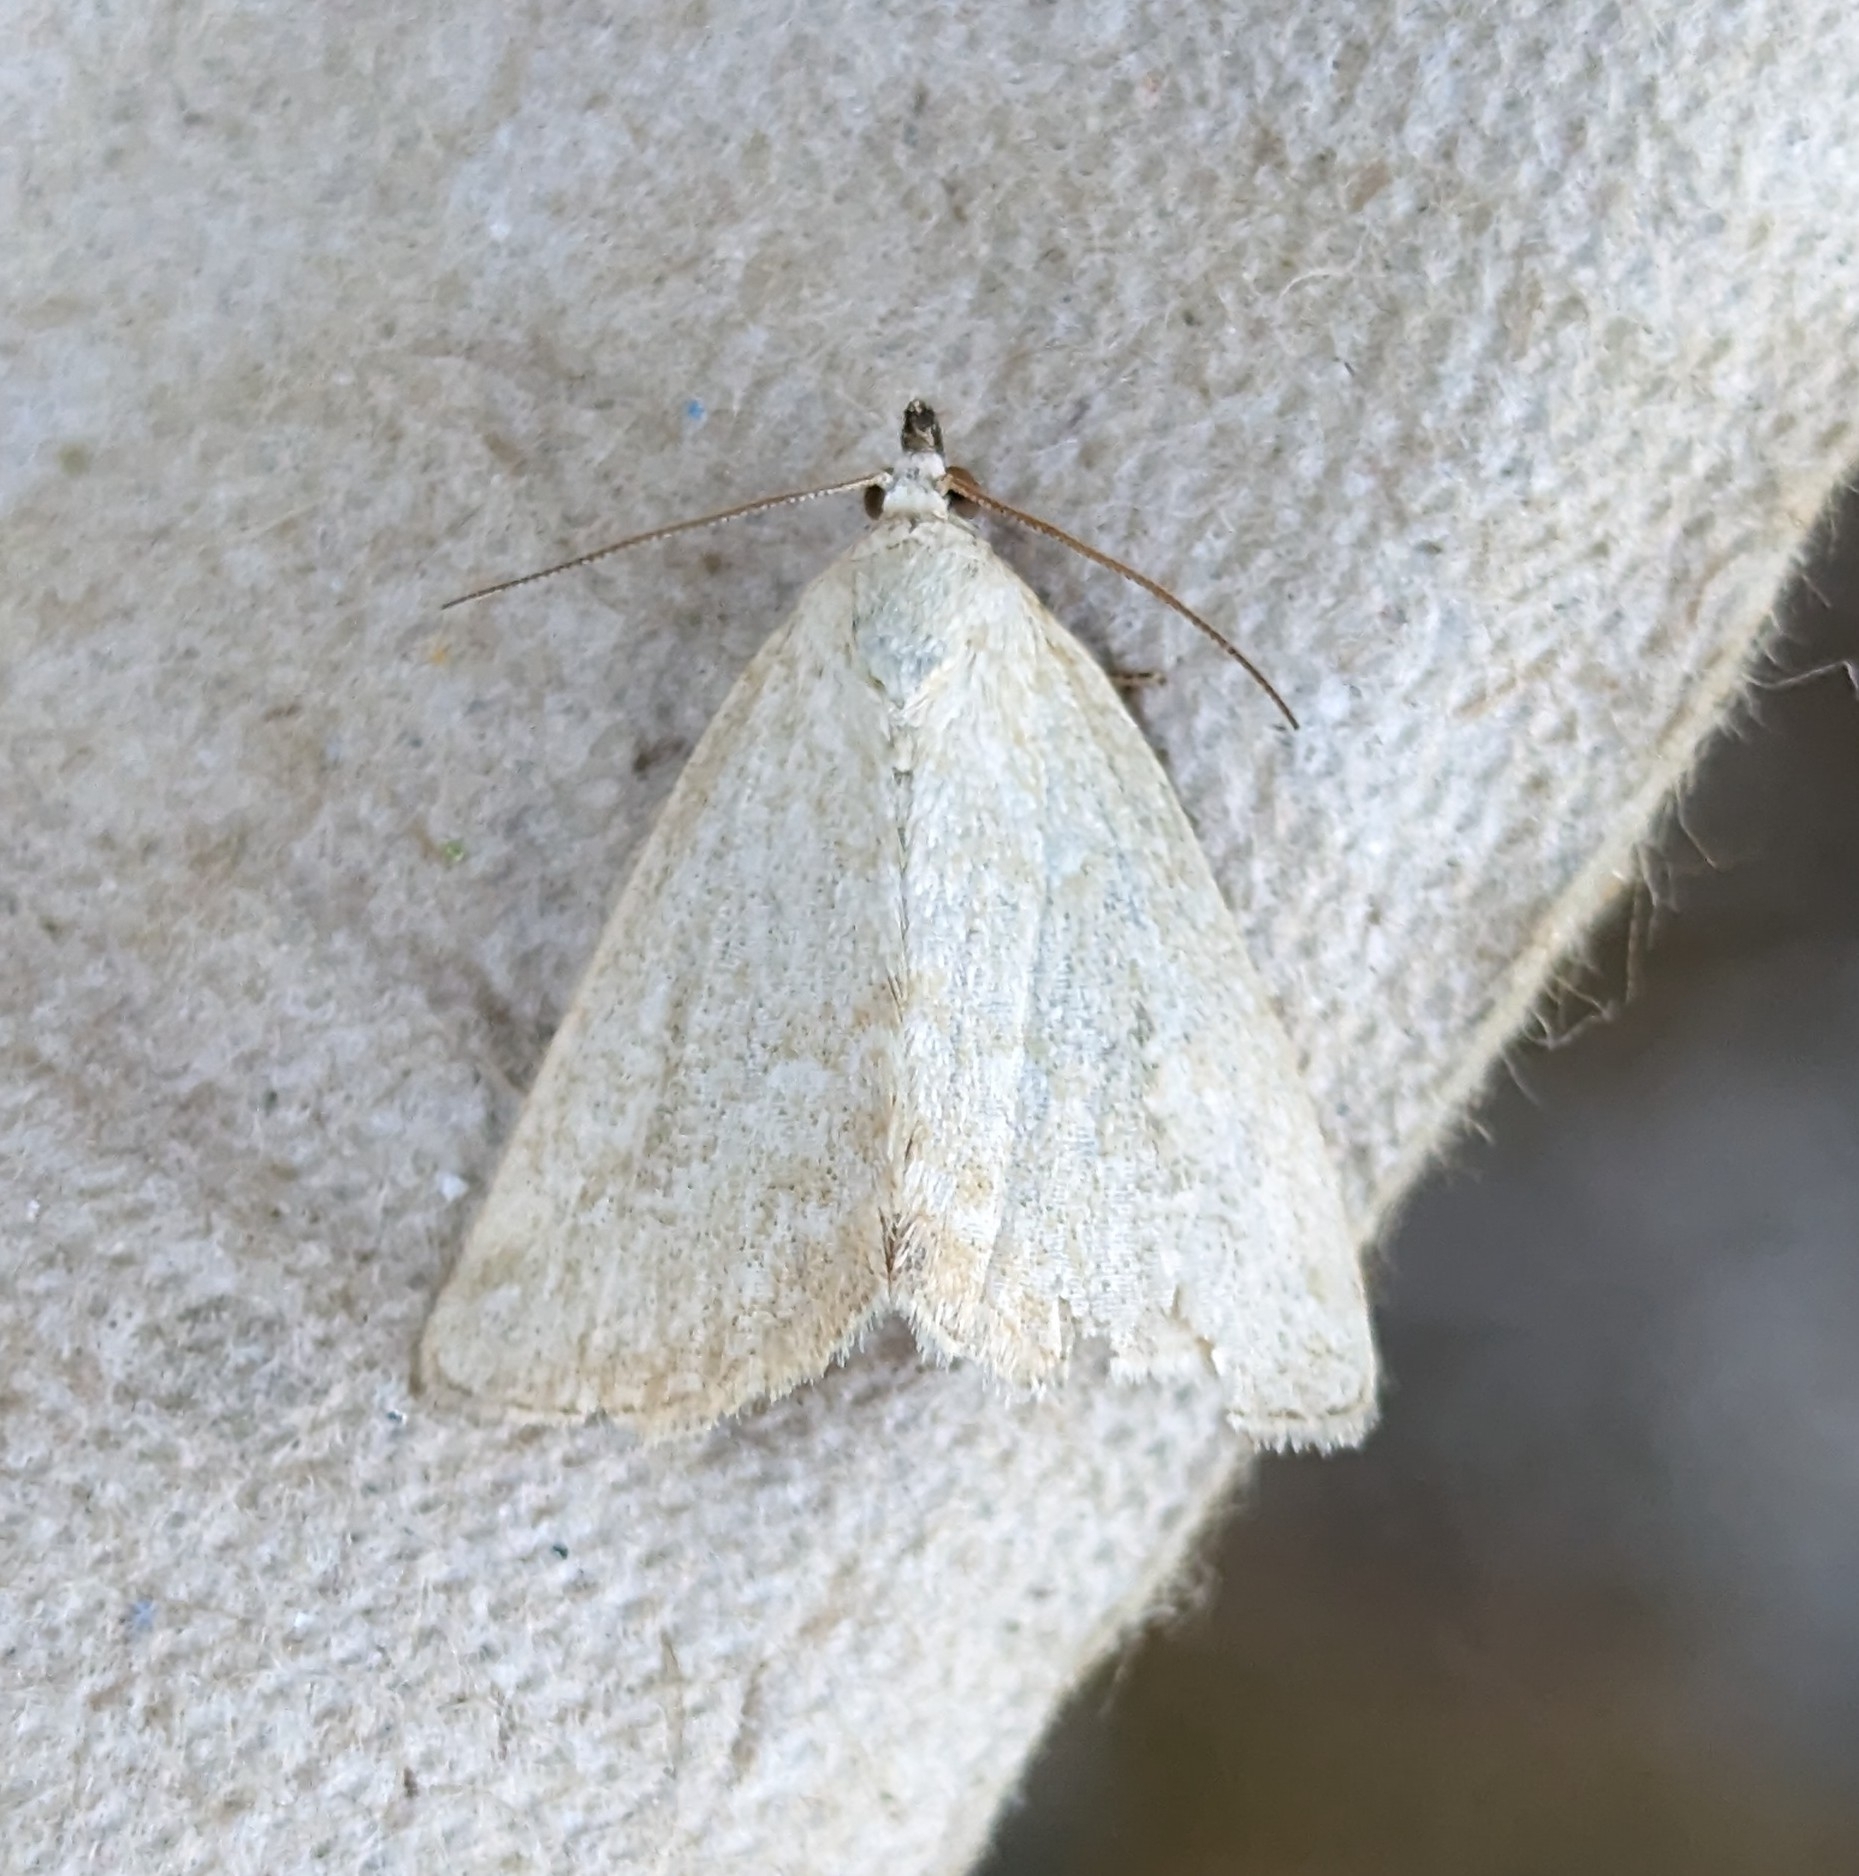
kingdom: Animalia
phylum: Arthropoda
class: Insecta
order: Lepidoptera
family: Noctuidae
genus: Protodeltote
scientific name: Protodeltote albidula
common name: Pale glyph
